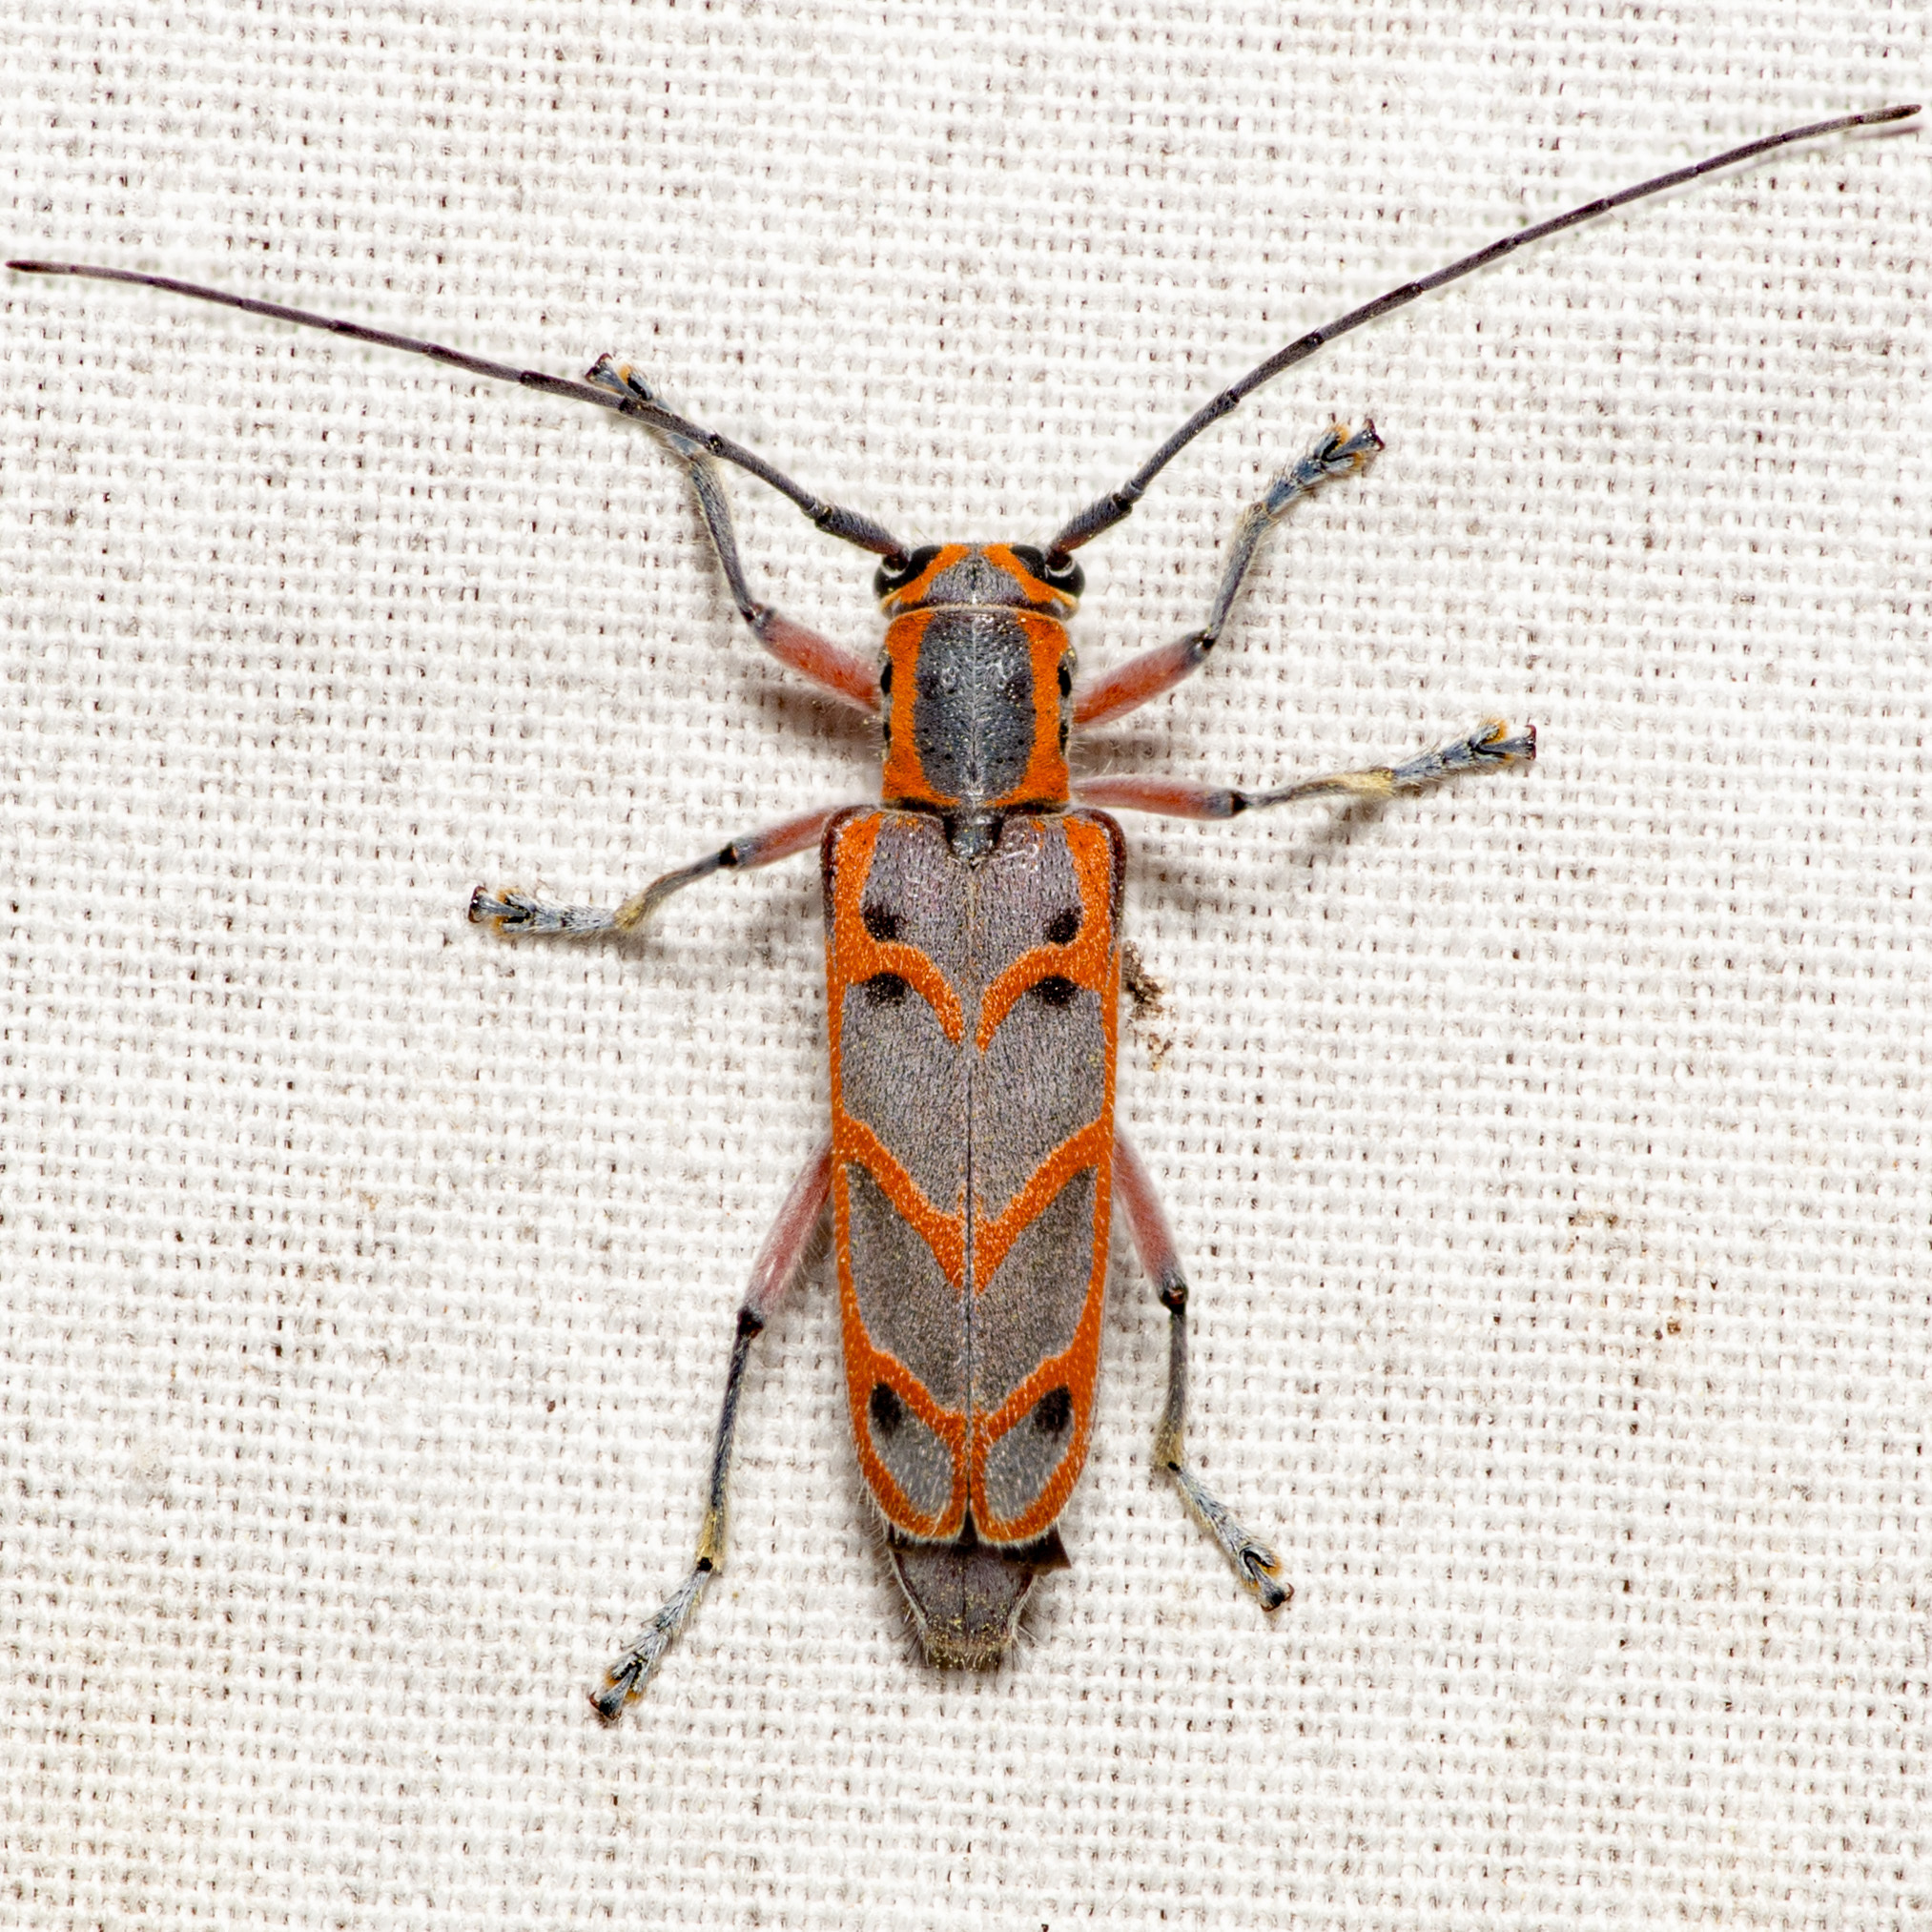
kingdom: Animalia
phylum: Arthropoda
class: Insecta
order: Coleoptera
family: Cerambycidae
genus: Saperda
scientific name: Saperda tridentata
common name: Elm borer
